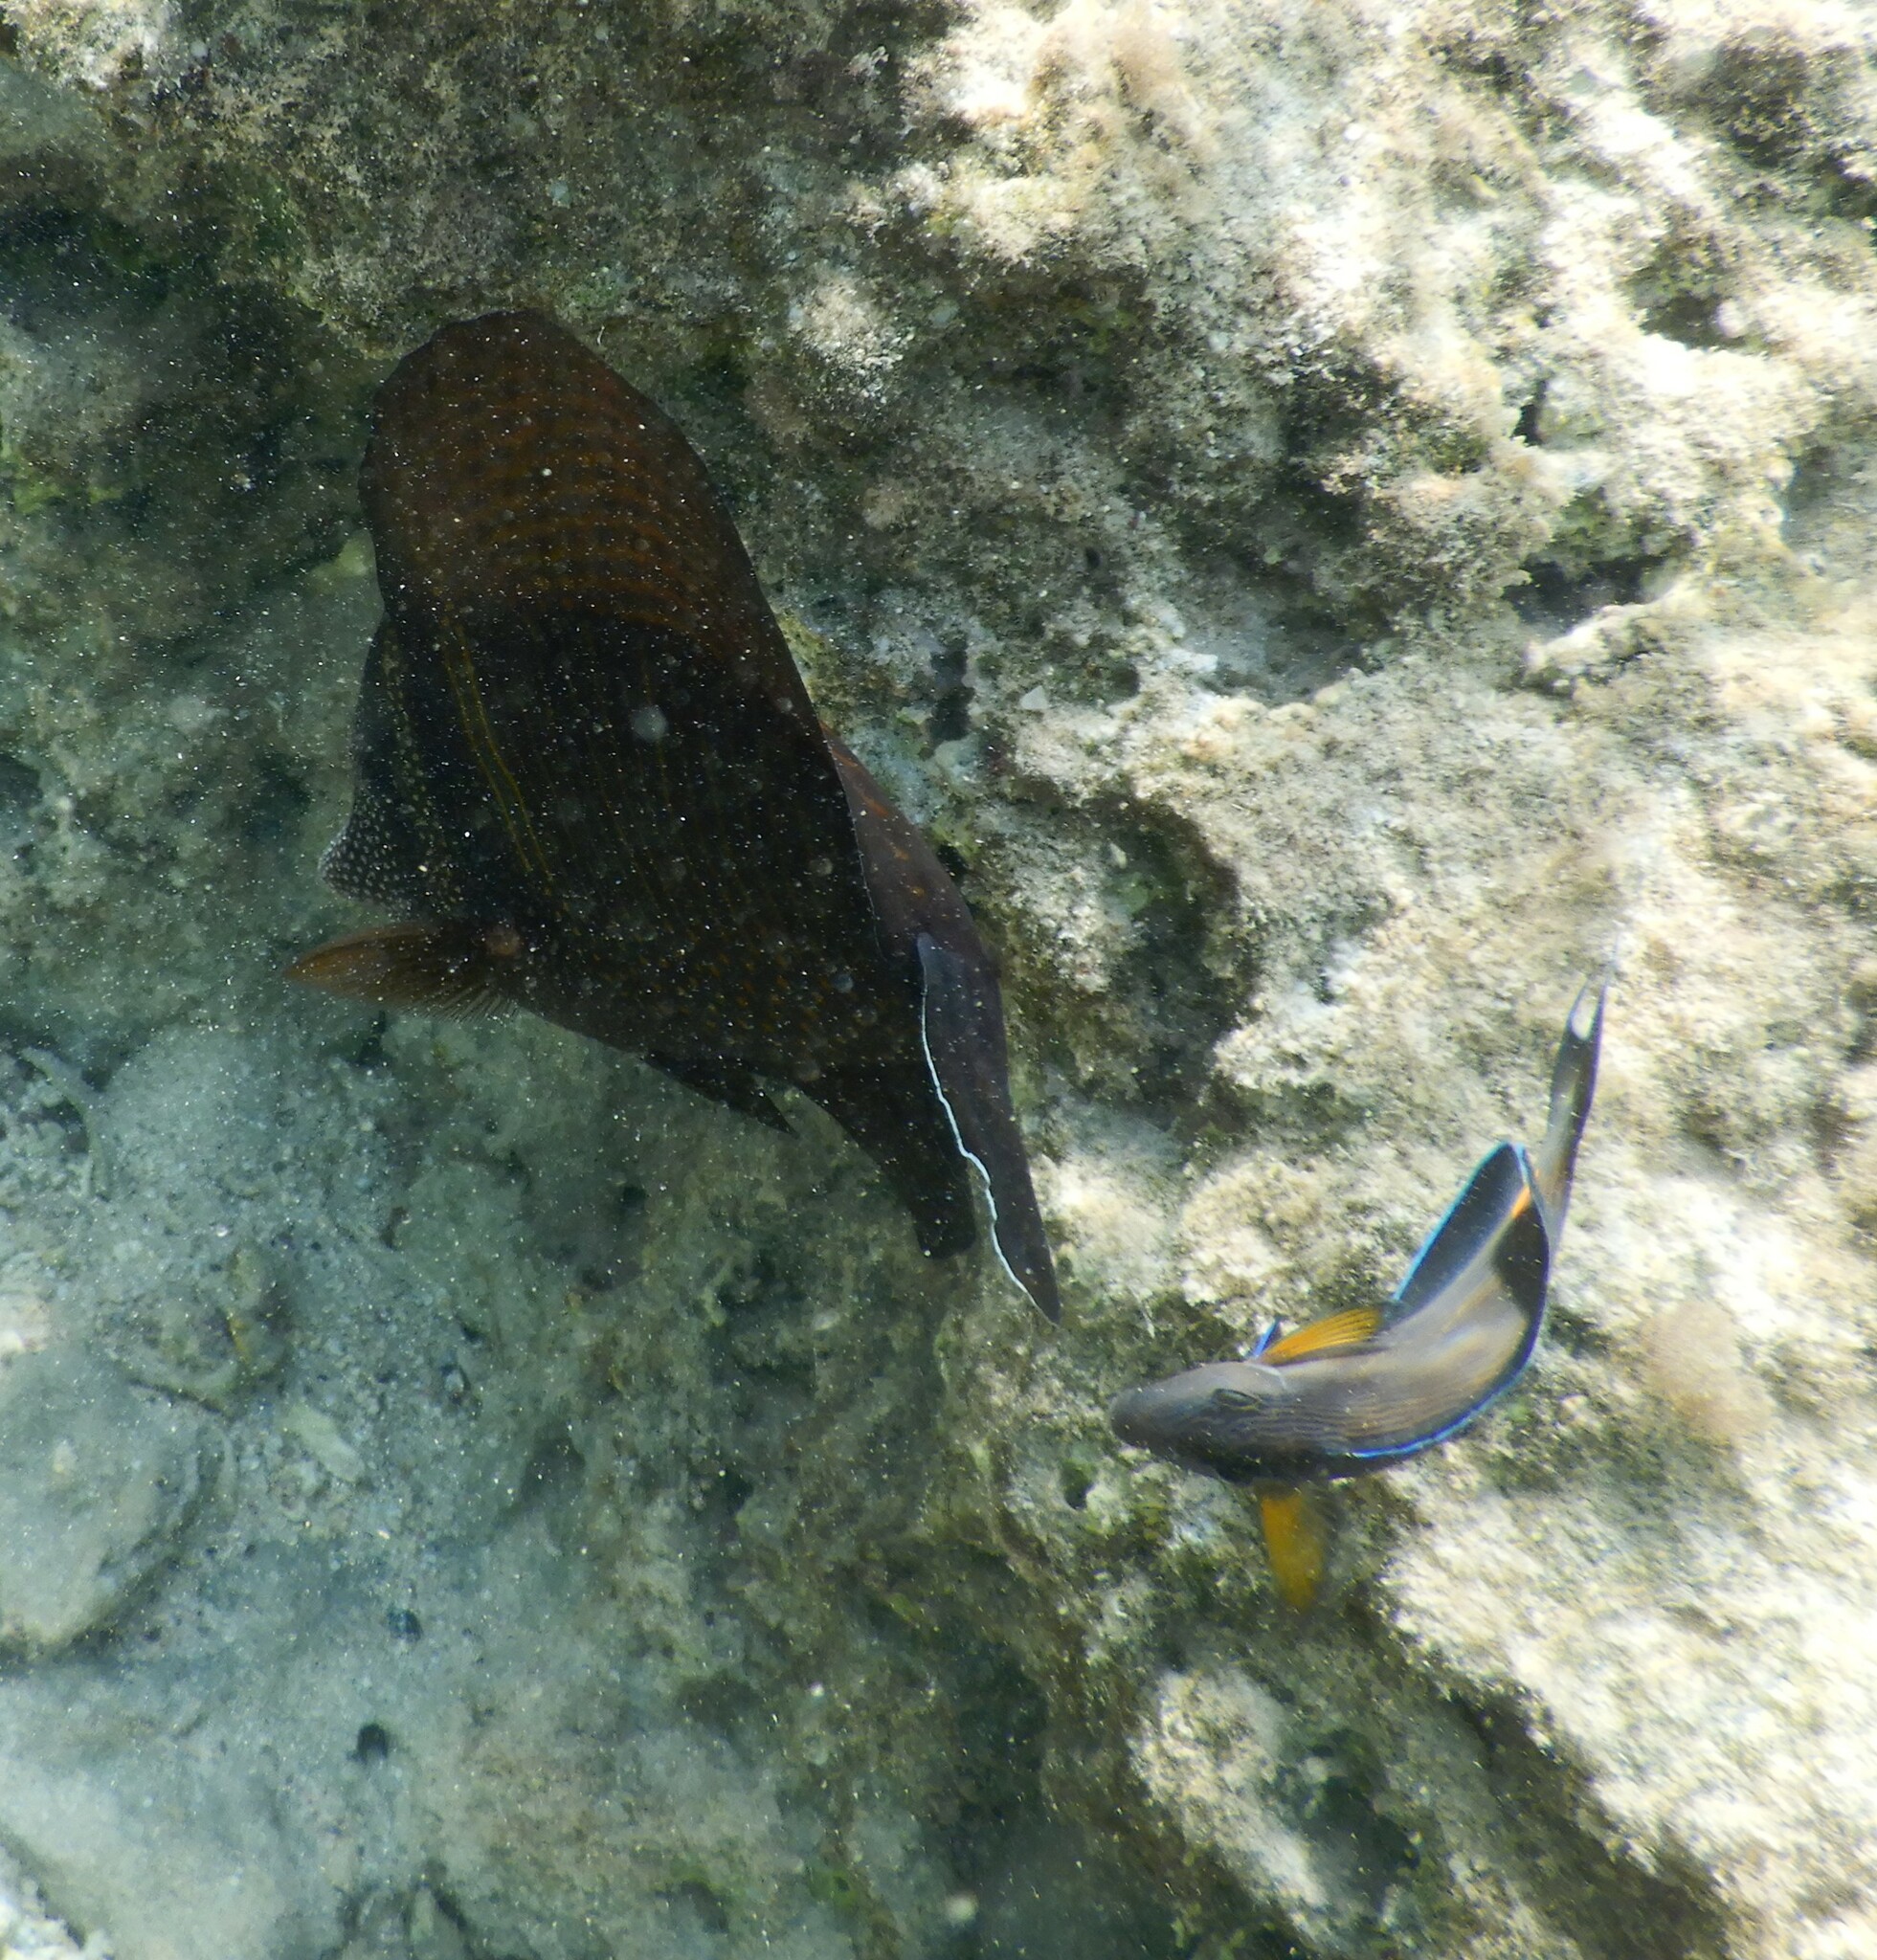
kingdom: Animalia
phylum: Chordata
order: Perciformes
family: Acanthuridae
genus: Acanthurus
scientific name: Acanthurus sohal
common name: Red sea surgeonfish
